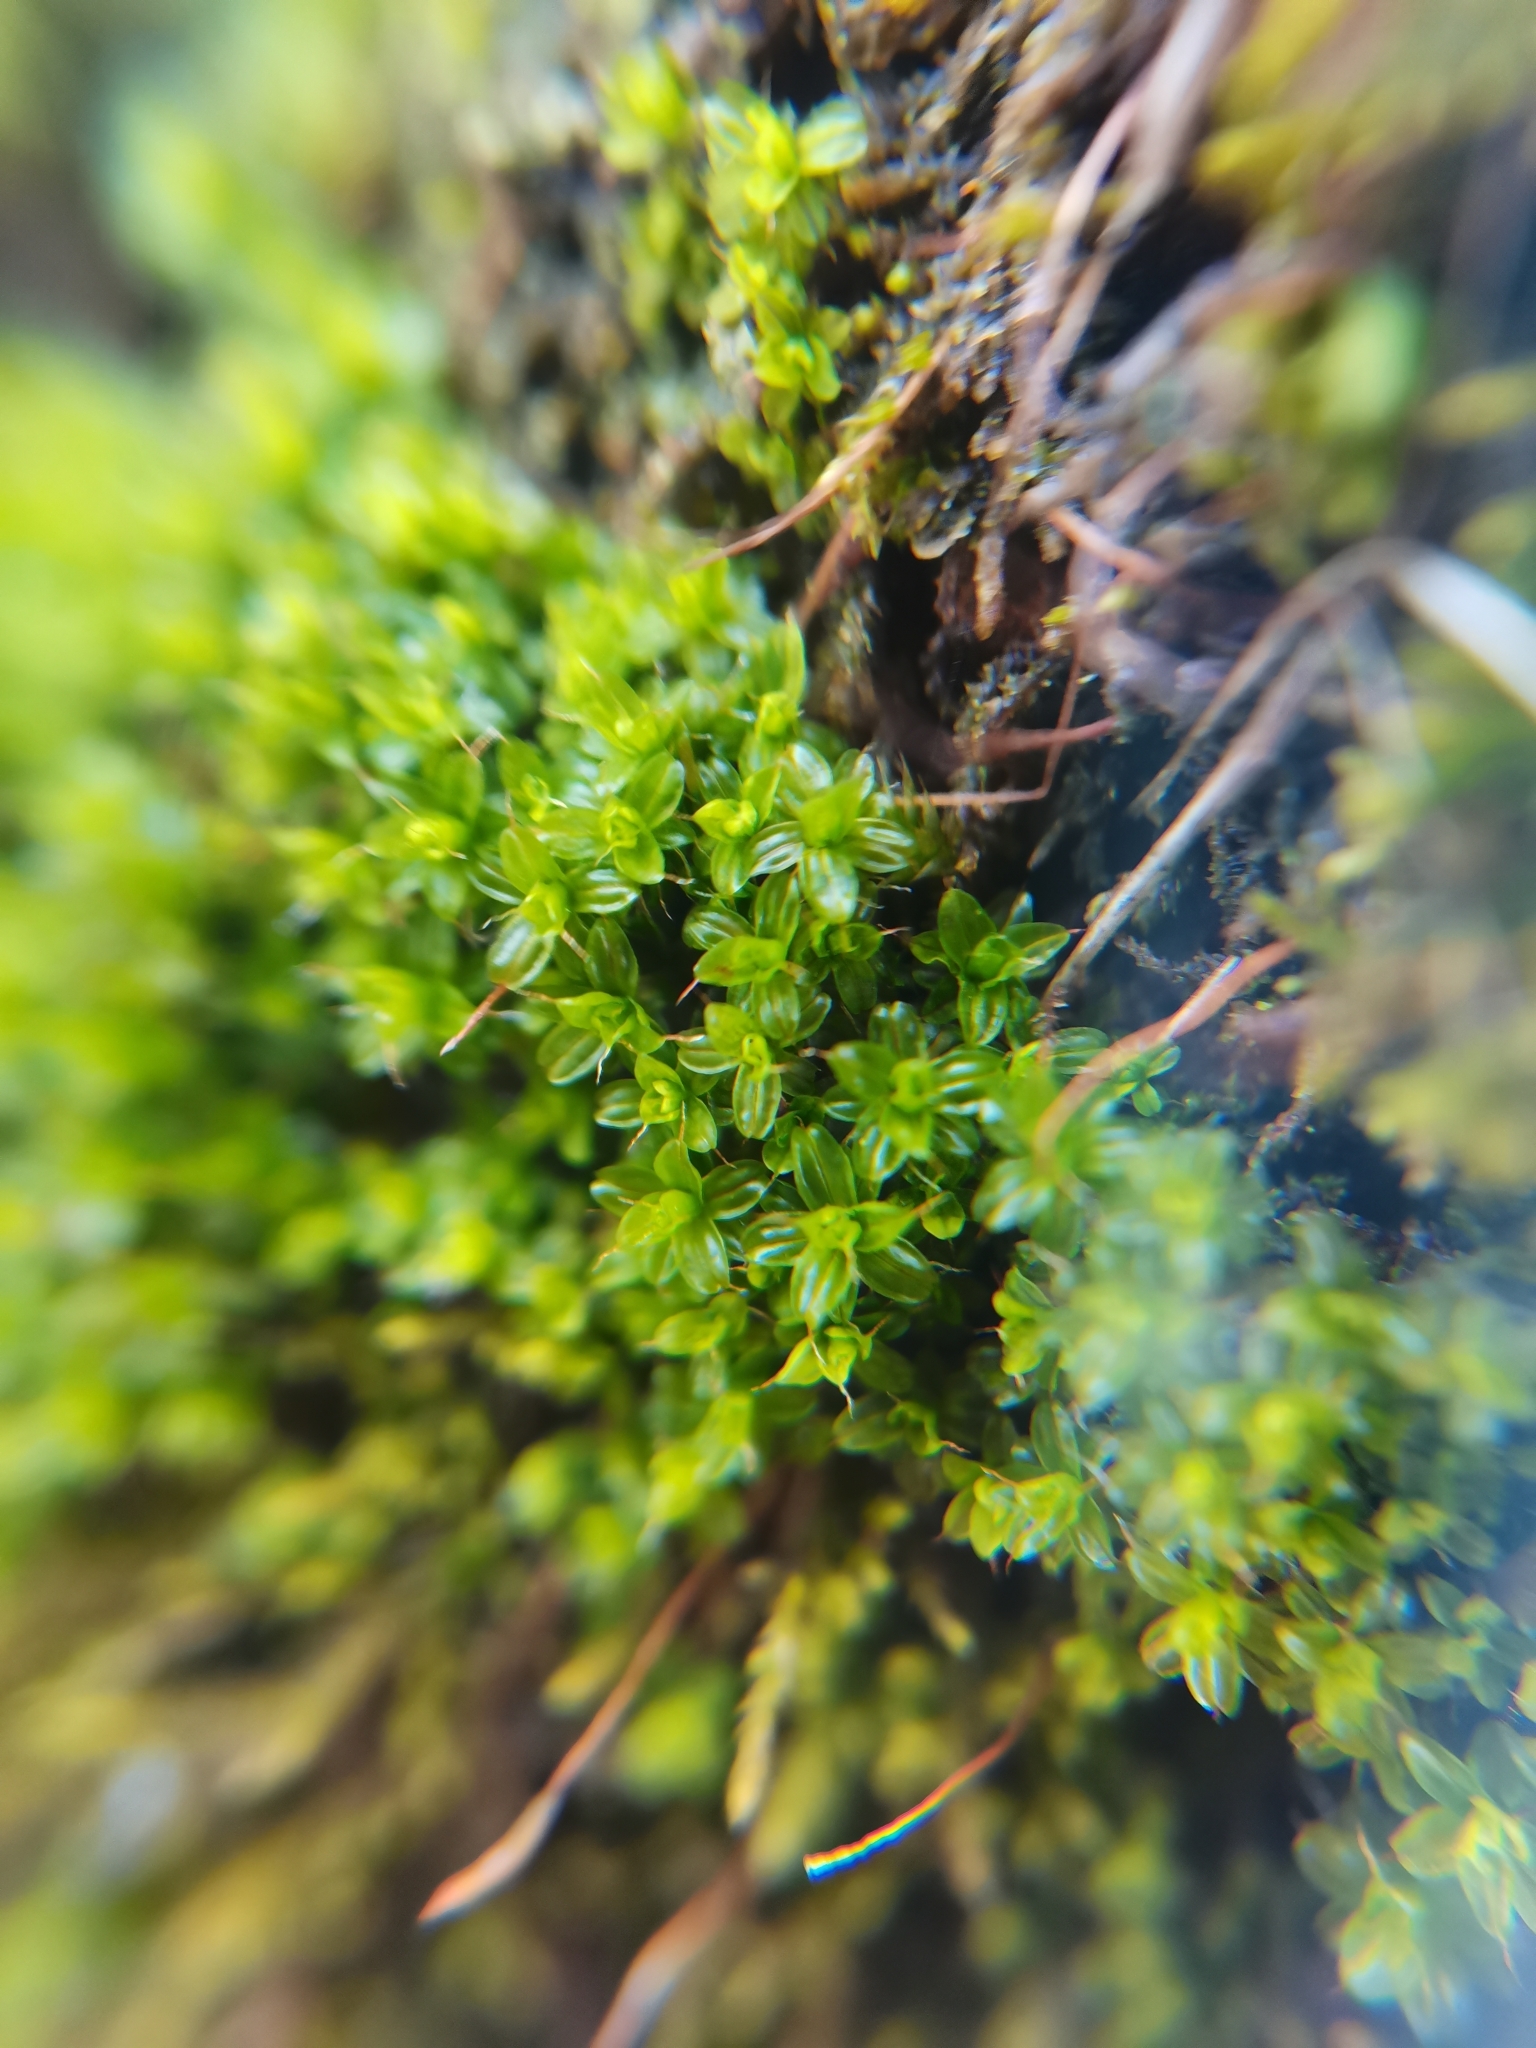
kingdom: Plantae
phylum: Bryophyta
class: Bryopsida
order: Pottiales
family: Pottiaceae
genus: Syntrichia
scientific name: Syntrichia virescens
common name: Lesser screw-moss
